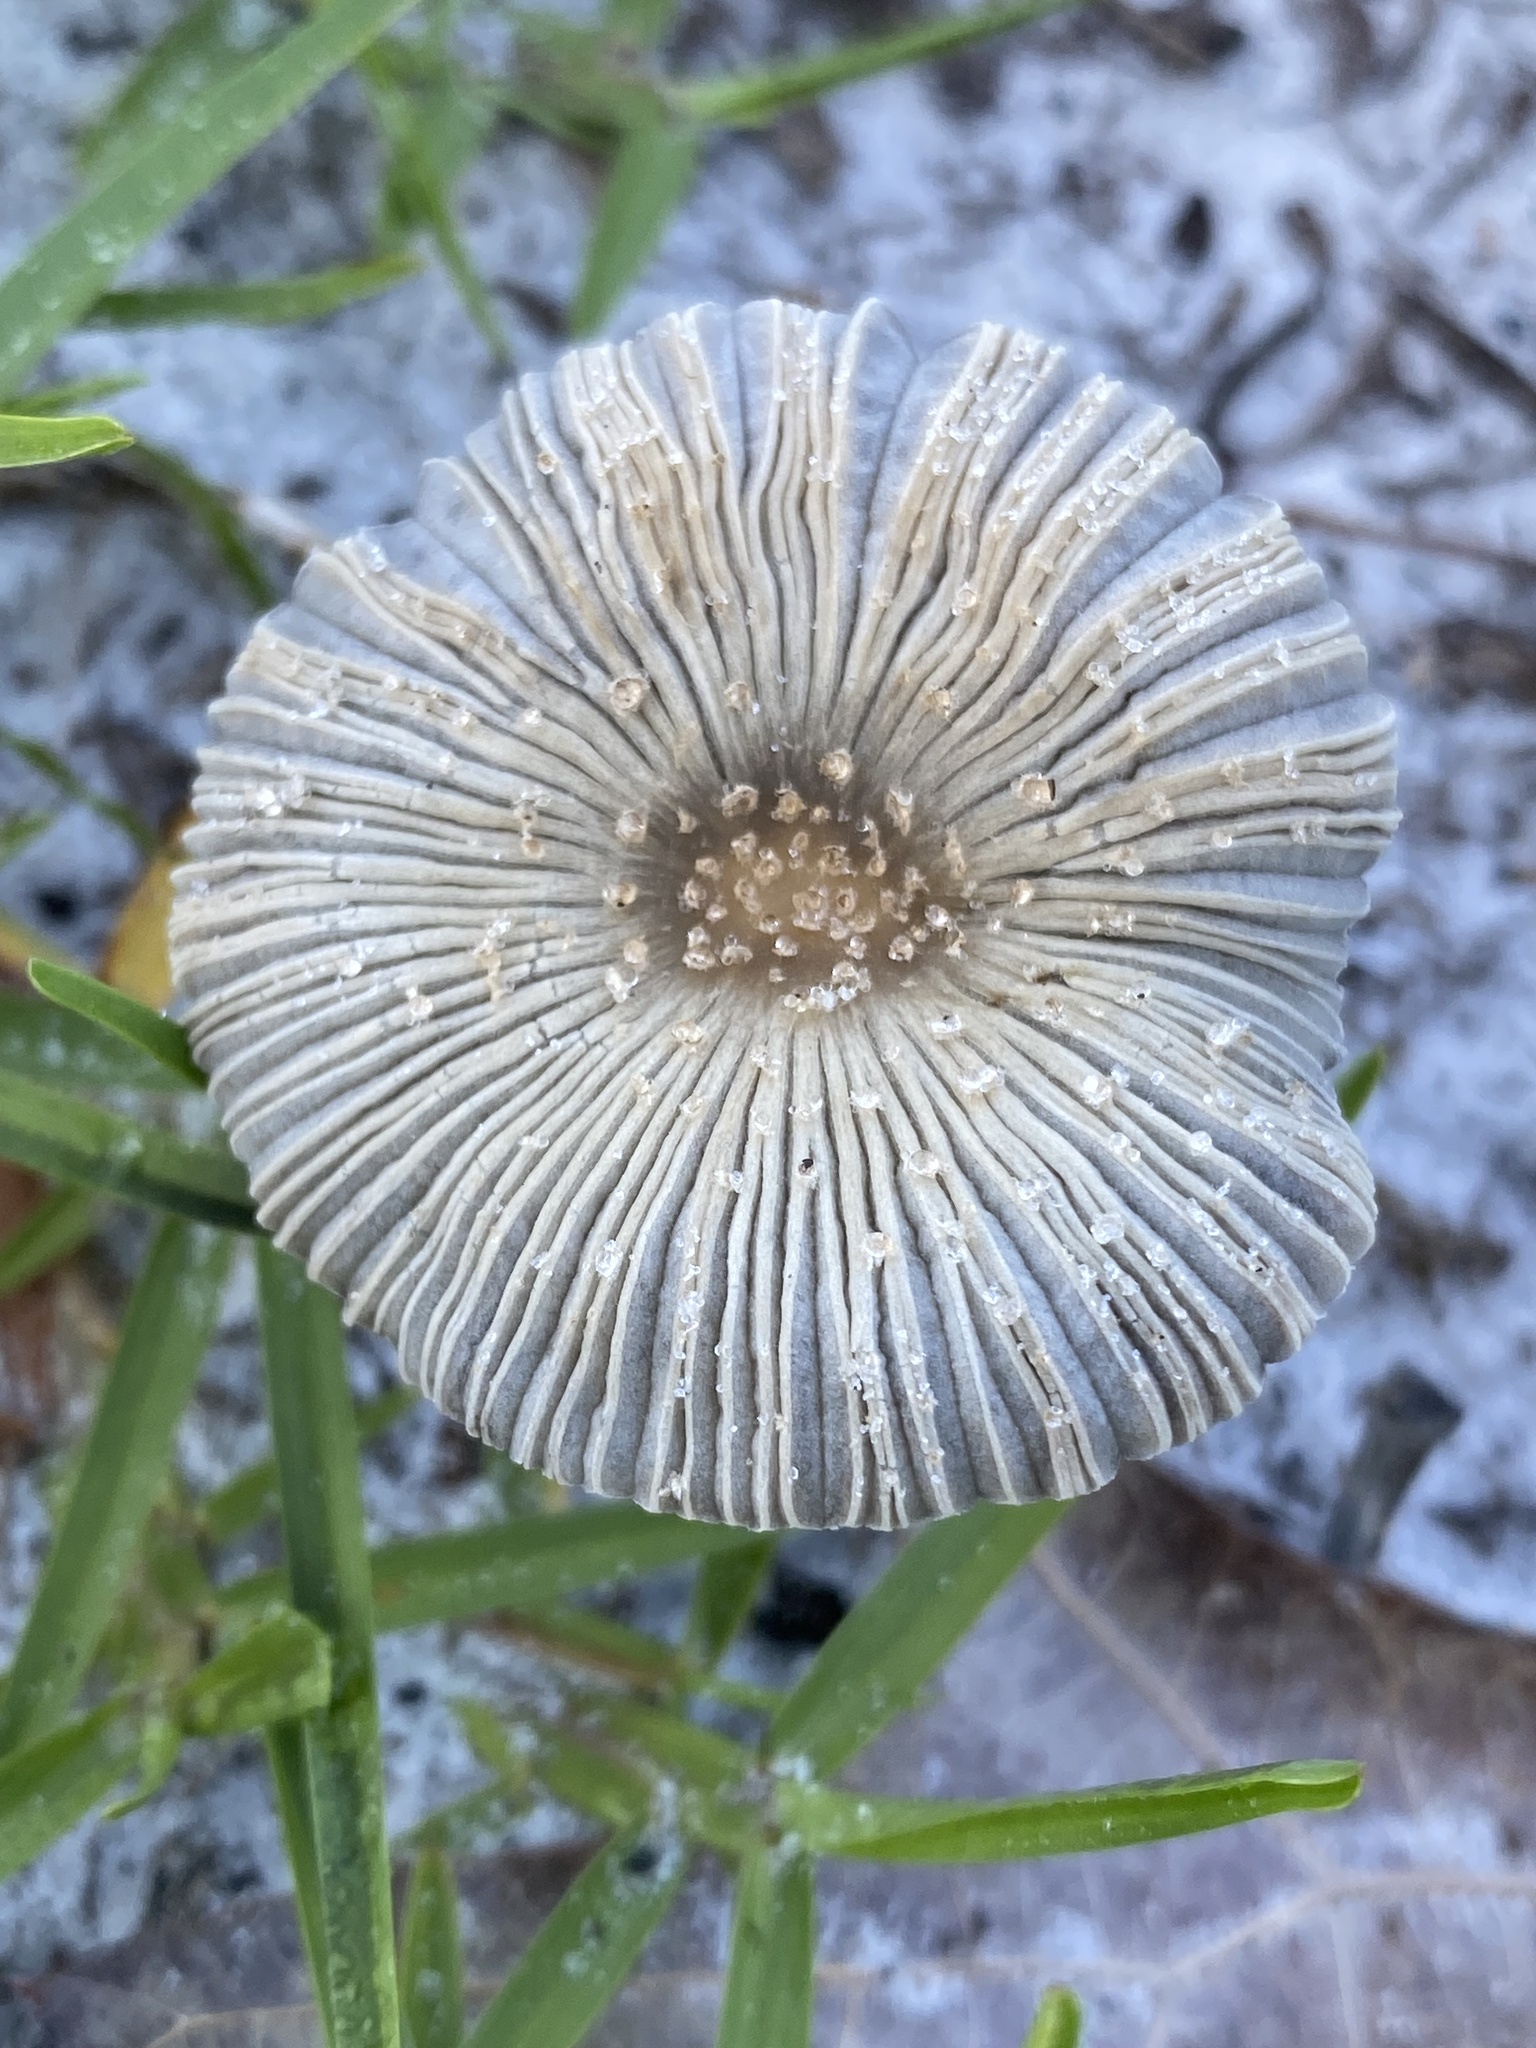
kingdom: Fungi
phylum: Basidiomycota
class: Agaricomycetes
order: Agaricales
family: Psathyrellaceae
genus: Parasola
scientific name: Parasola plicatilis
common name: Pleated inkcap
